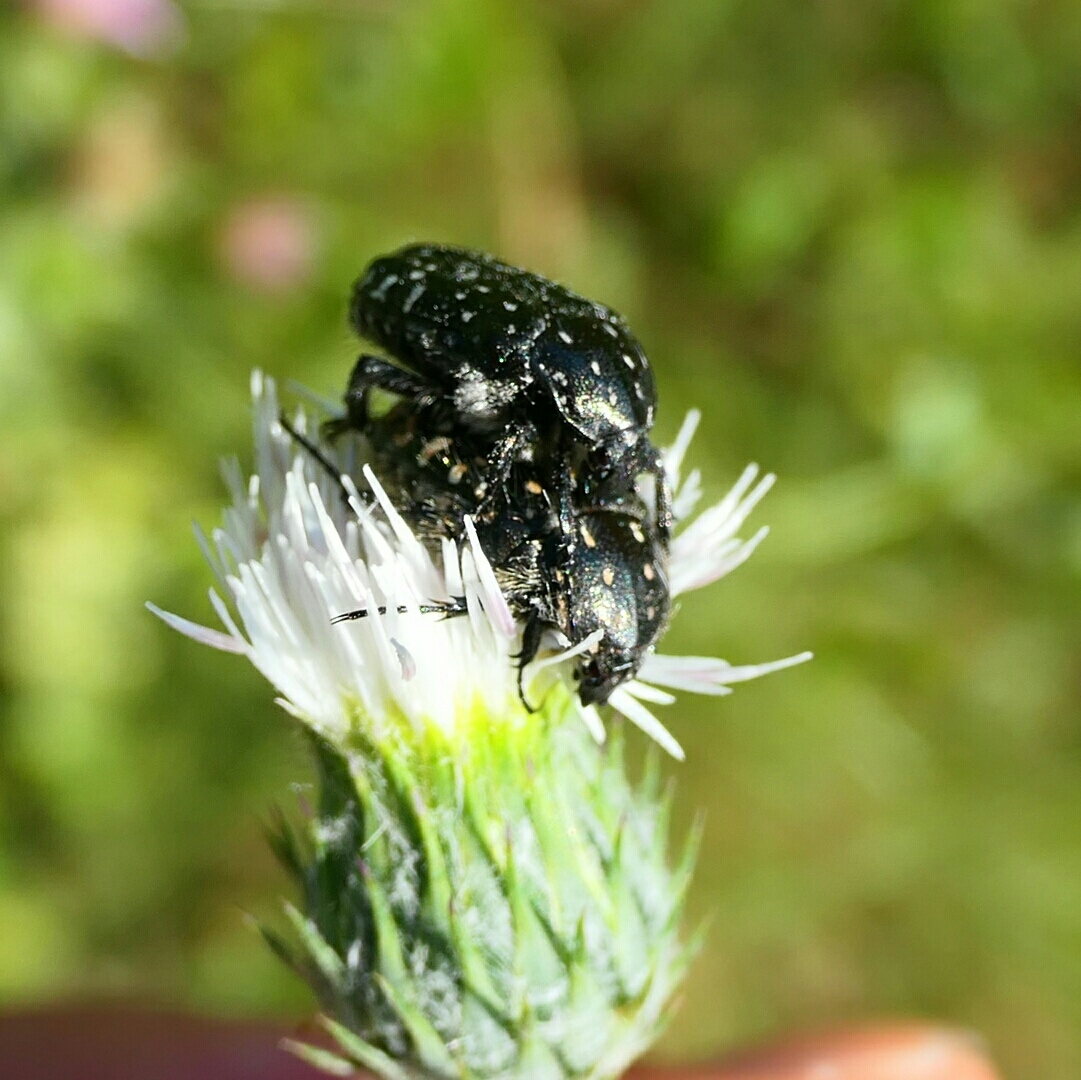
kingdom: Animalia
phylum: Arthropoda
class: Insecta
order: Coleoptera
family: Scarabaeidae
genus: Oxythyrea
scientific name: Oxythyrea funesta
